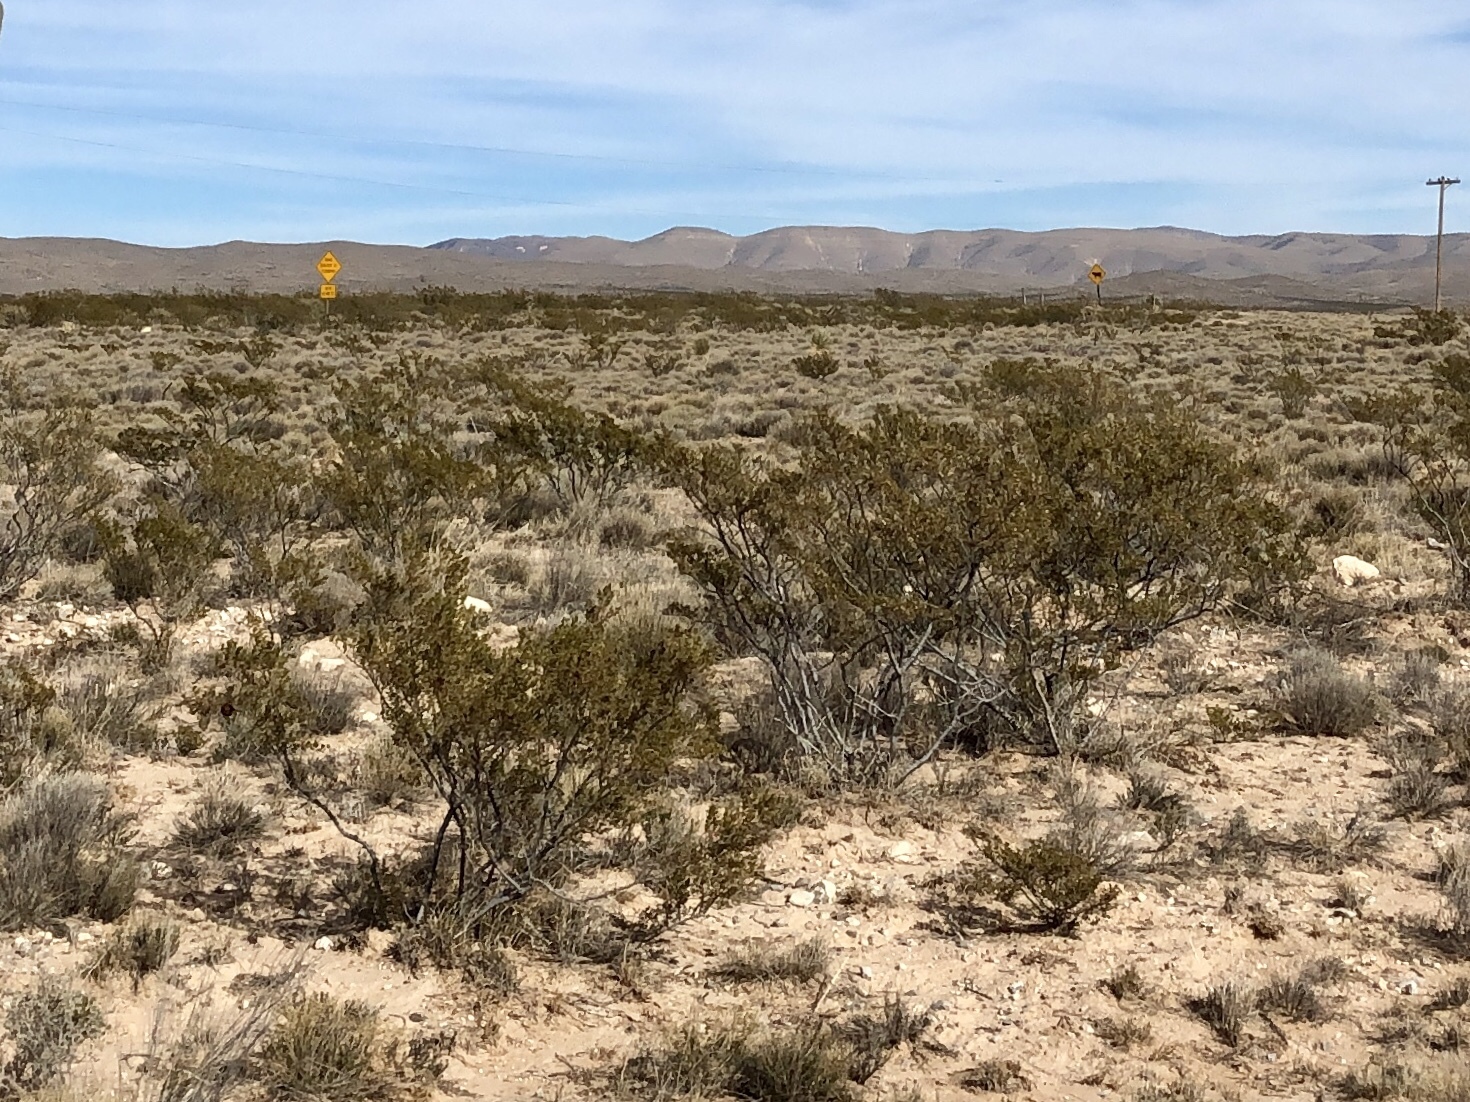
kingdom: Plantae
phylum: Tracheophyta
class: Magnoliopsida
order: Zygophyllales
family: Zygophyllaceae
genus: Larrea
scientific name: Larrea tridentata
